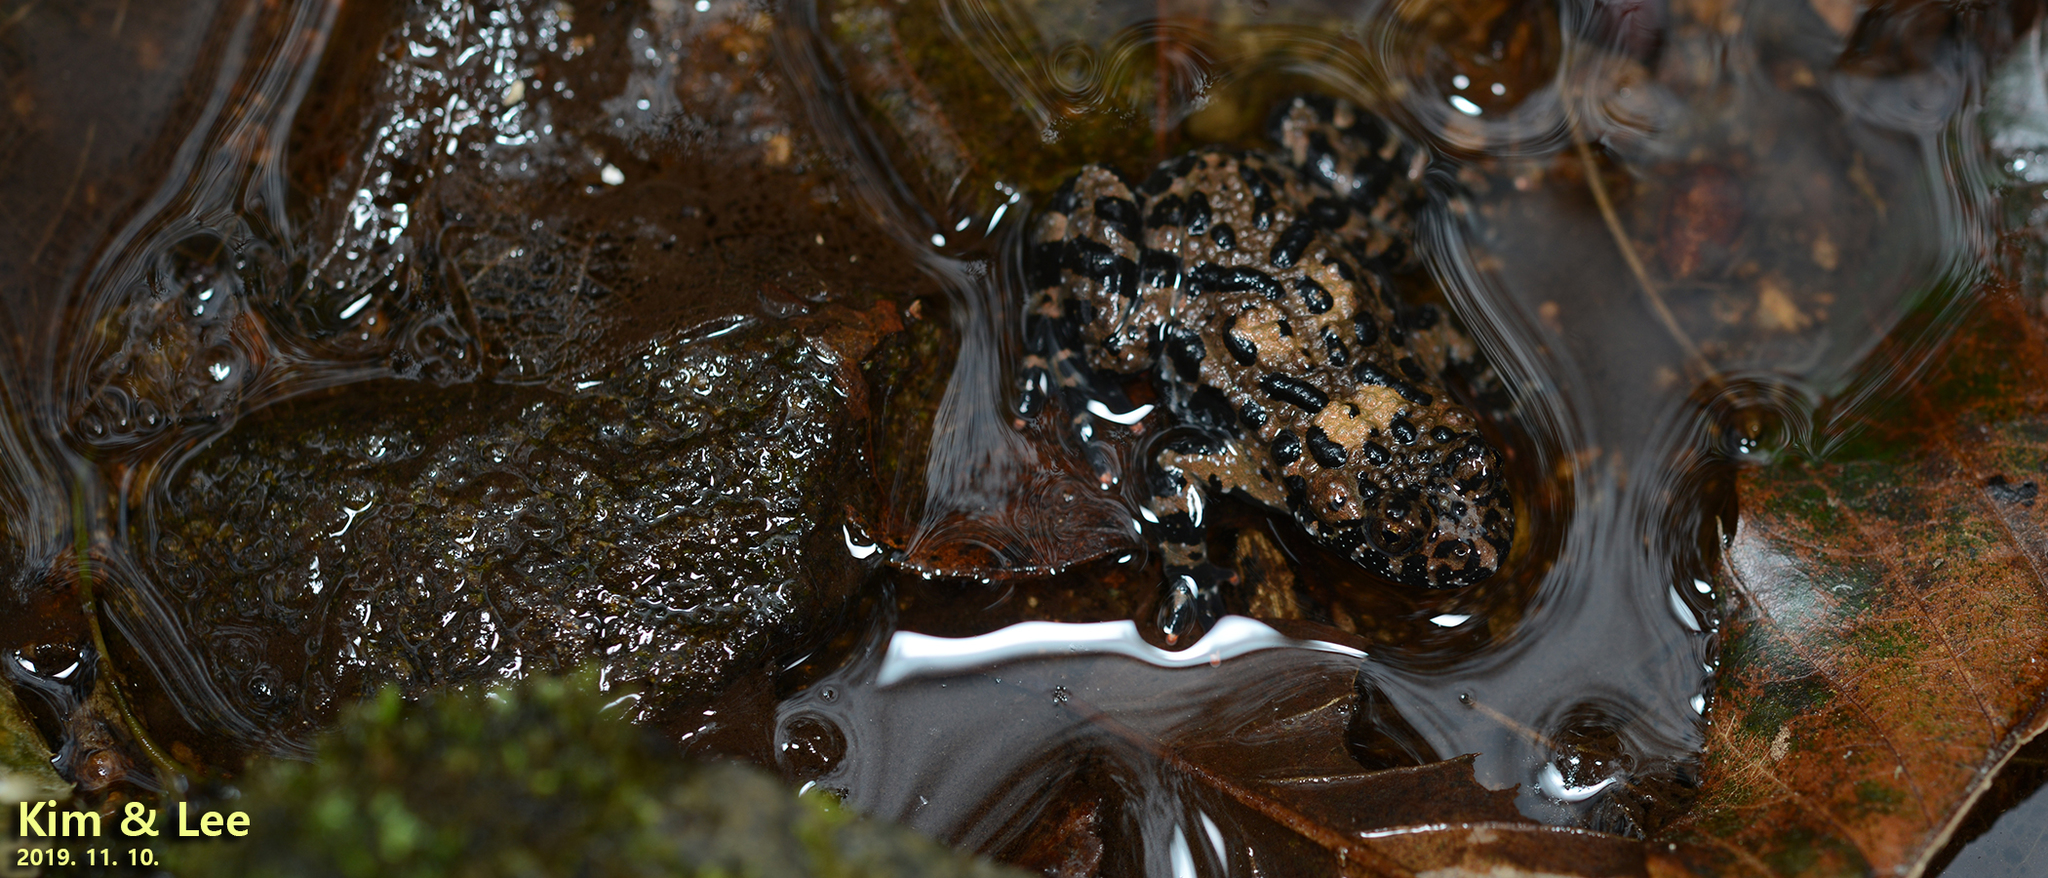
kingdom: Animalia
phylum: Chordata
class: Amphibia
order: Anura
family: Bombinatoridae
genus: Bombina
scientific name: Bombina orientalis
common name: Oriental firebelly toad
